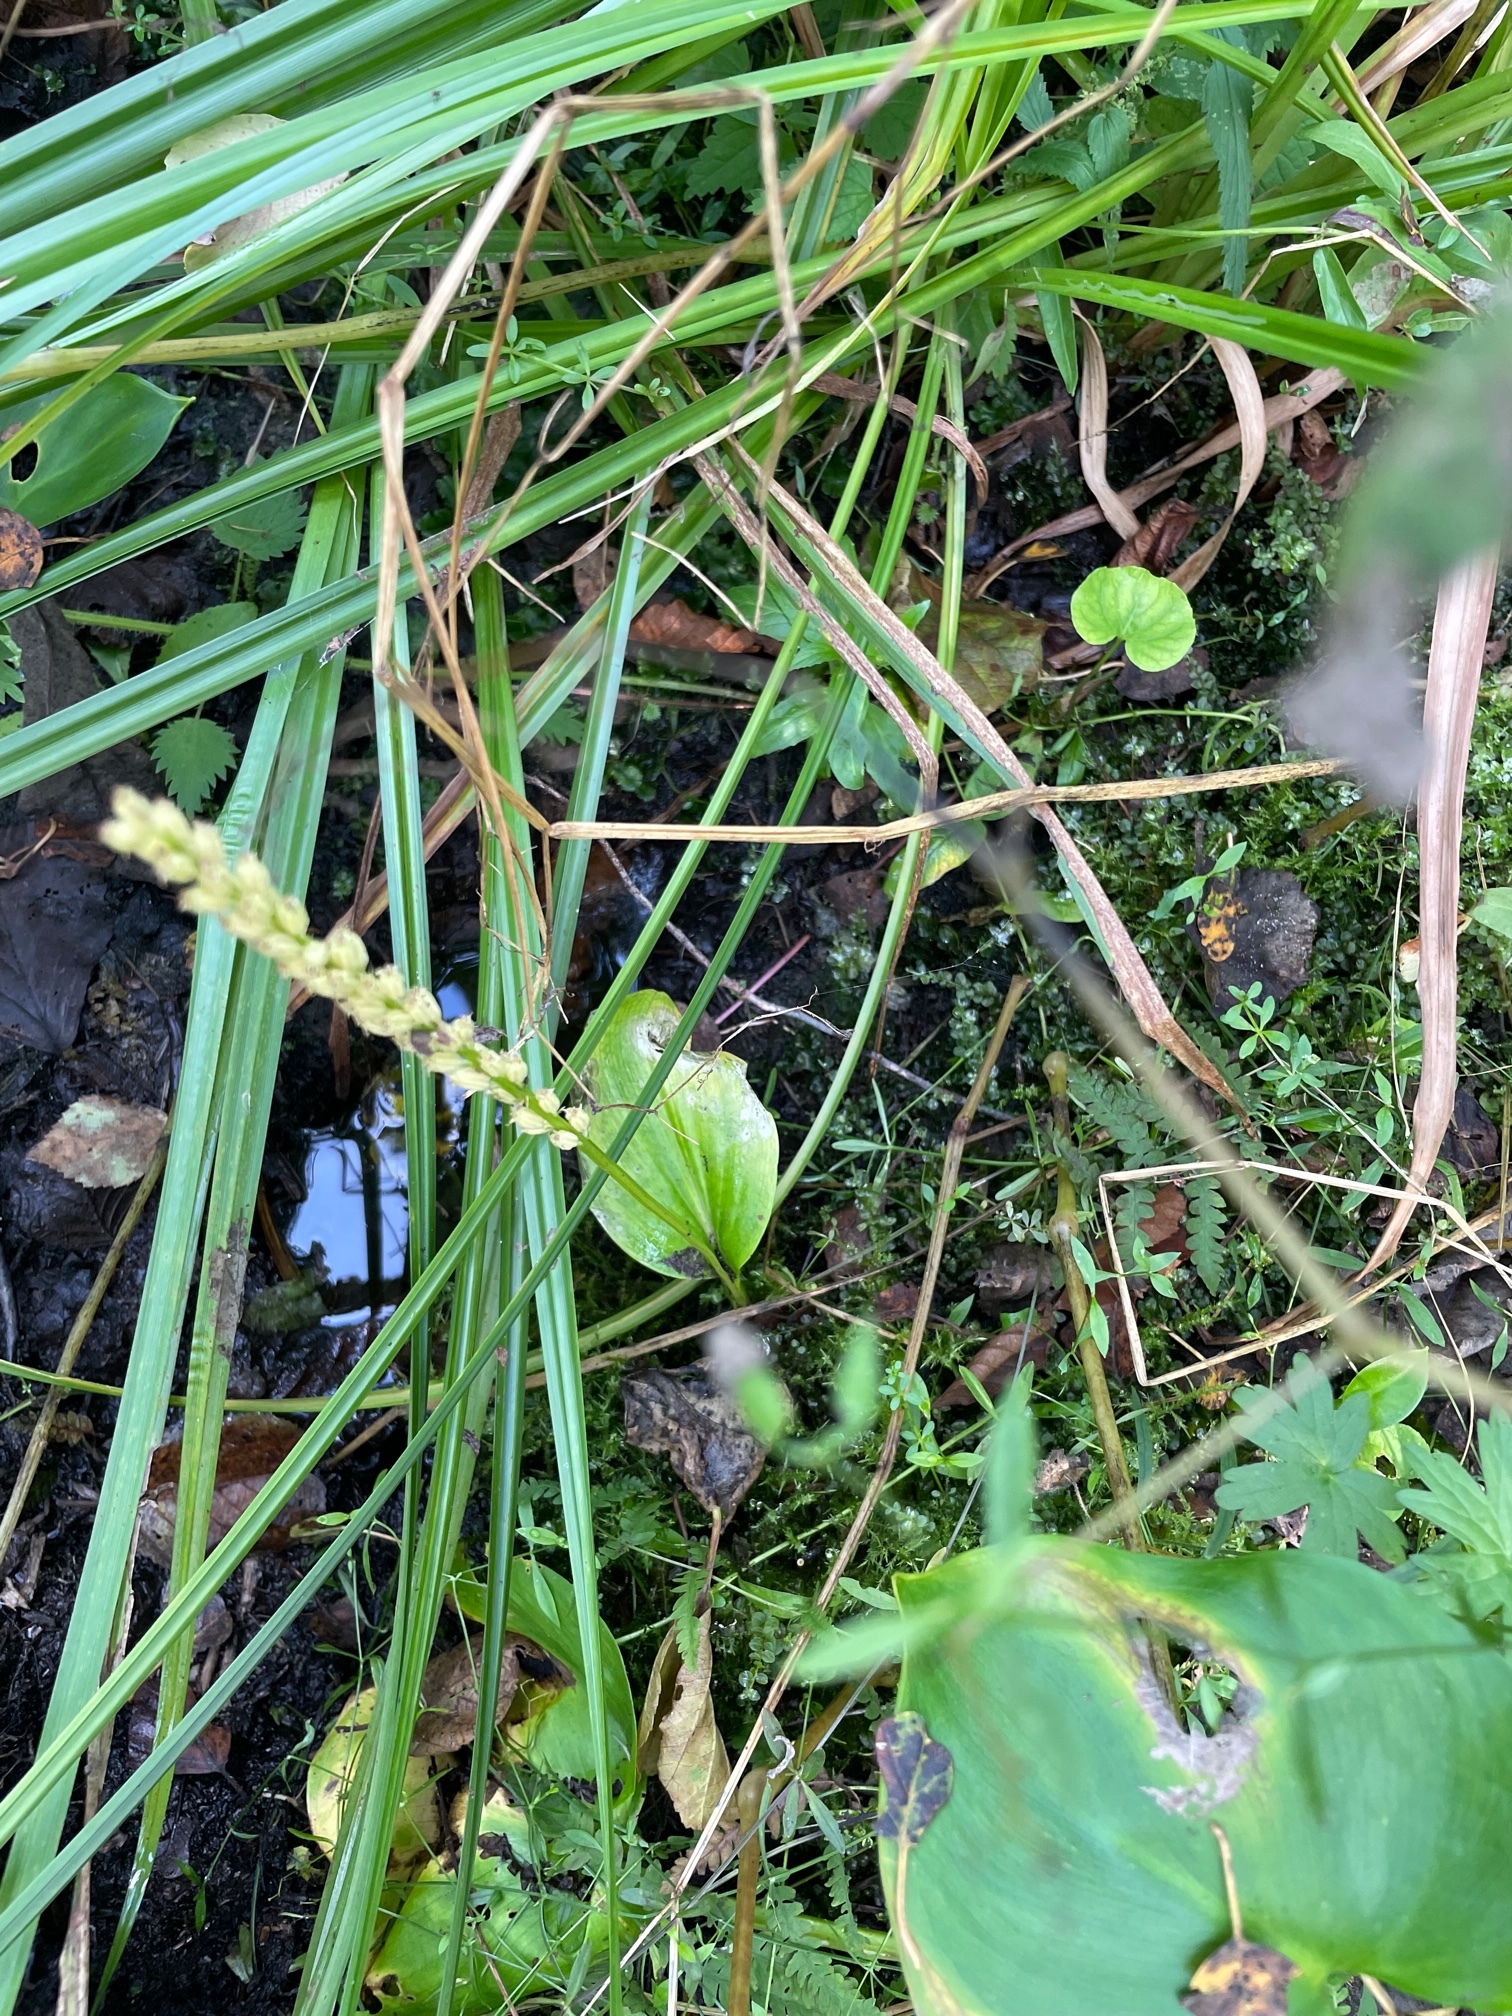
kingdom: Plantae
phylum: Tracheophyta
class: Liliopsida
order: Asparagales
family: Orchidaceae
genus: Malaxis
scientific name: Malaxis monophyllos
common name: White adder's-mouth
